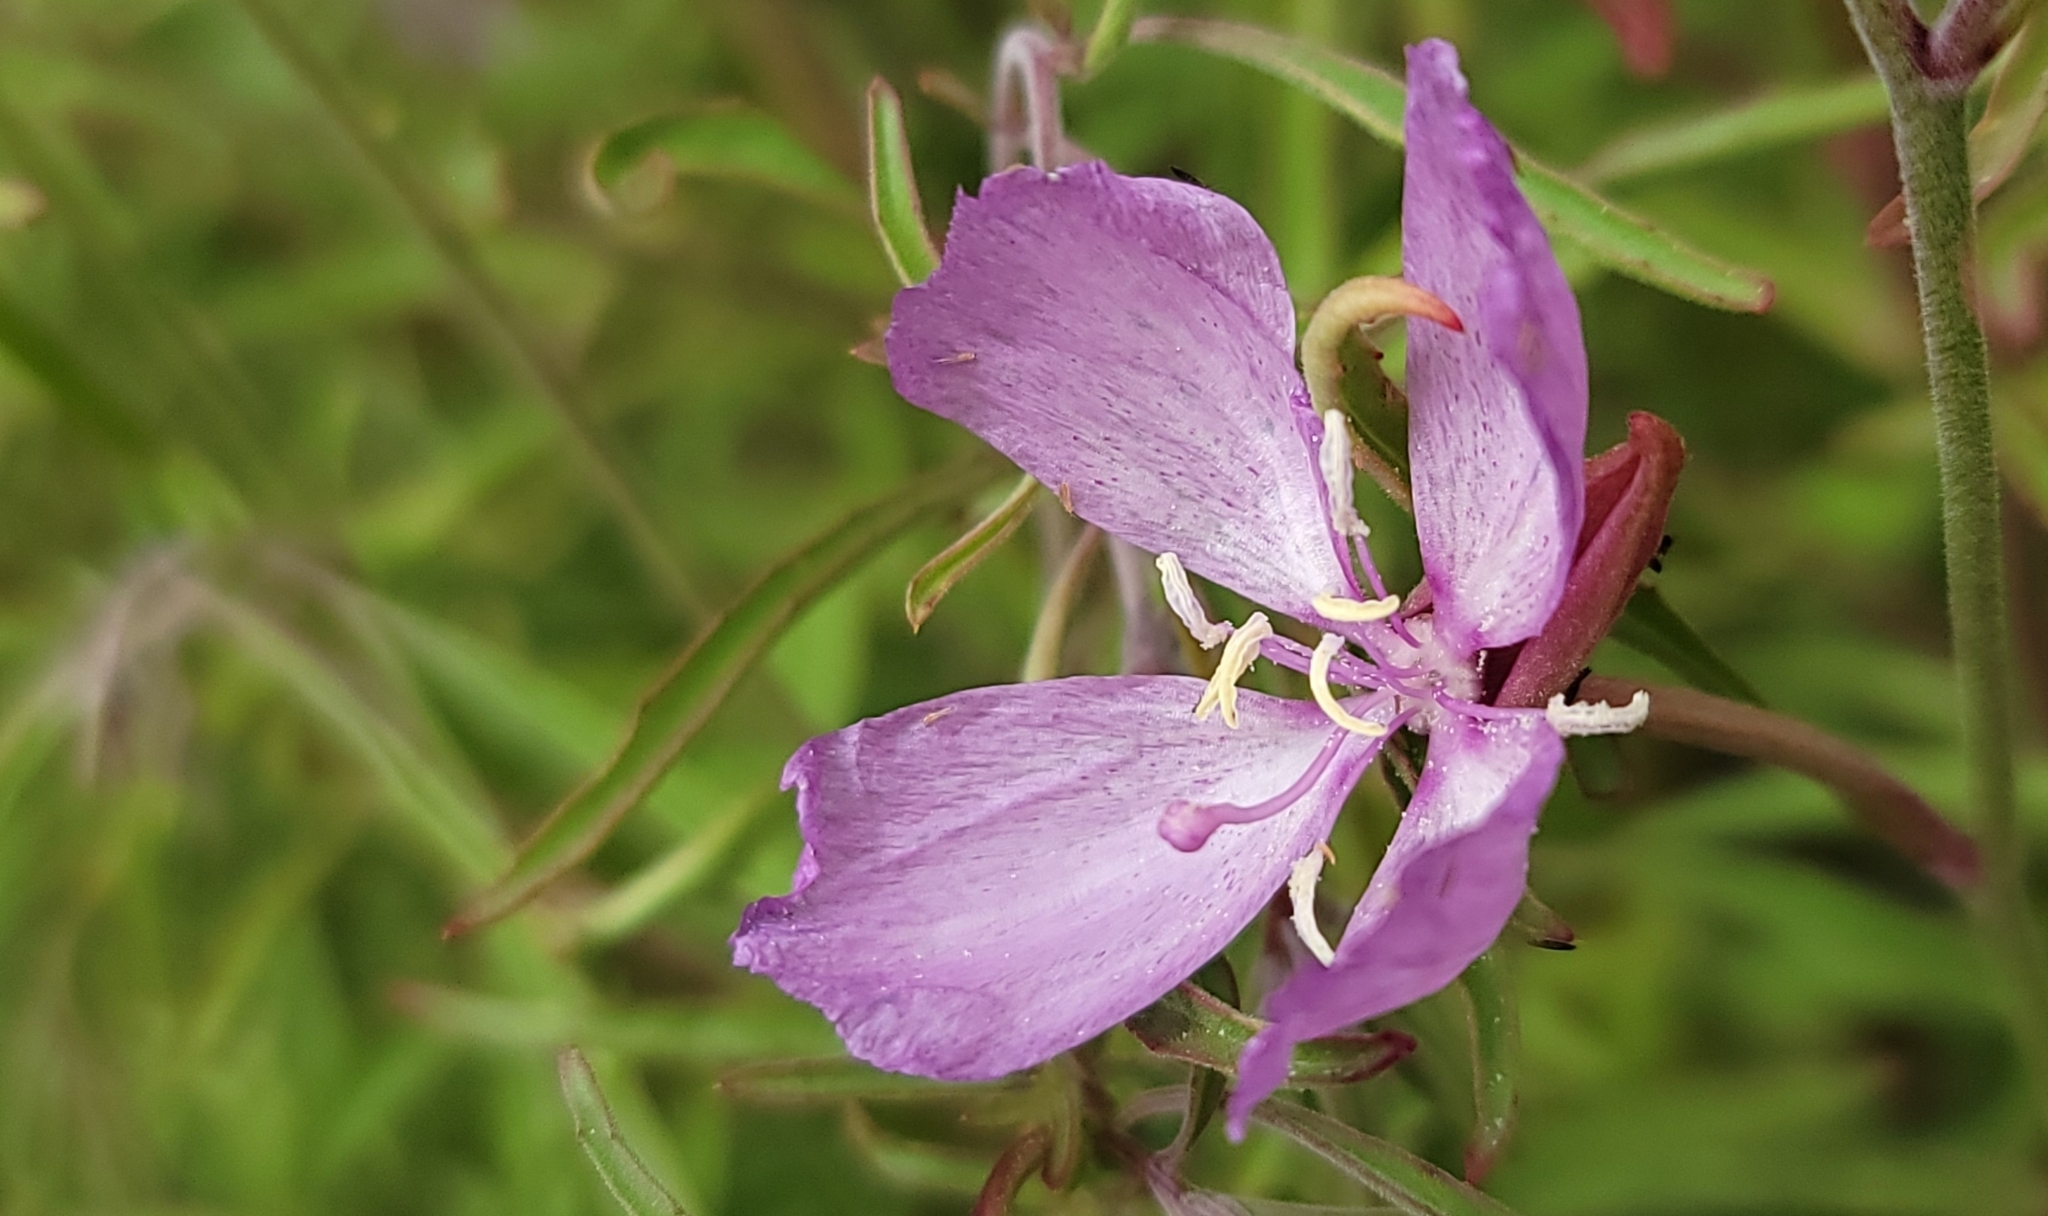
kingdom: Plantae
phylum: Tracheophyta
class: Magnoliopsida
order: Myrtales
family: Onagraceae
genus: Clarkia
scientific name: Clarkia dudleyana
